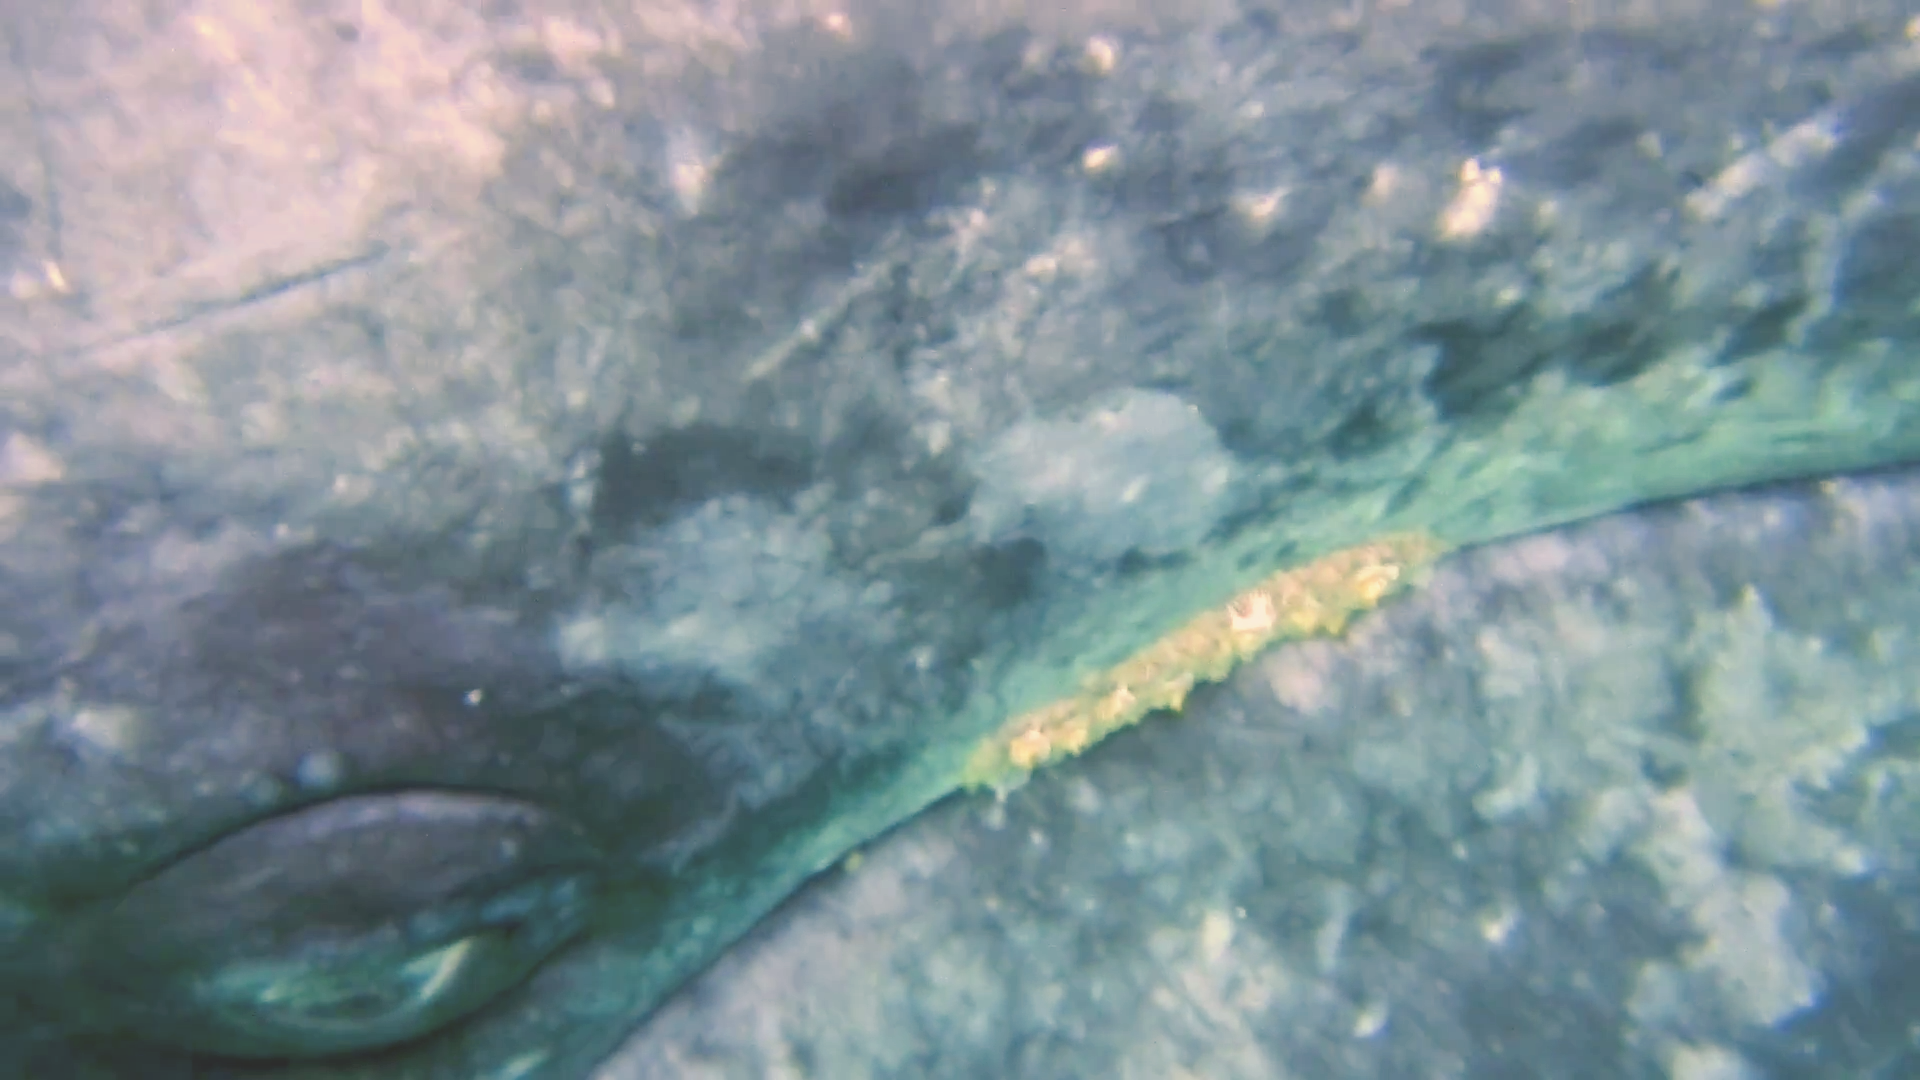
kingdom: Animalia
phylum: Chordata
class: Mammalia
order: Cetacea
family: Eschrichtiidae
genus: Eschrichtius
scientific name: Eschrichtius robustus
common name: Gray whale
